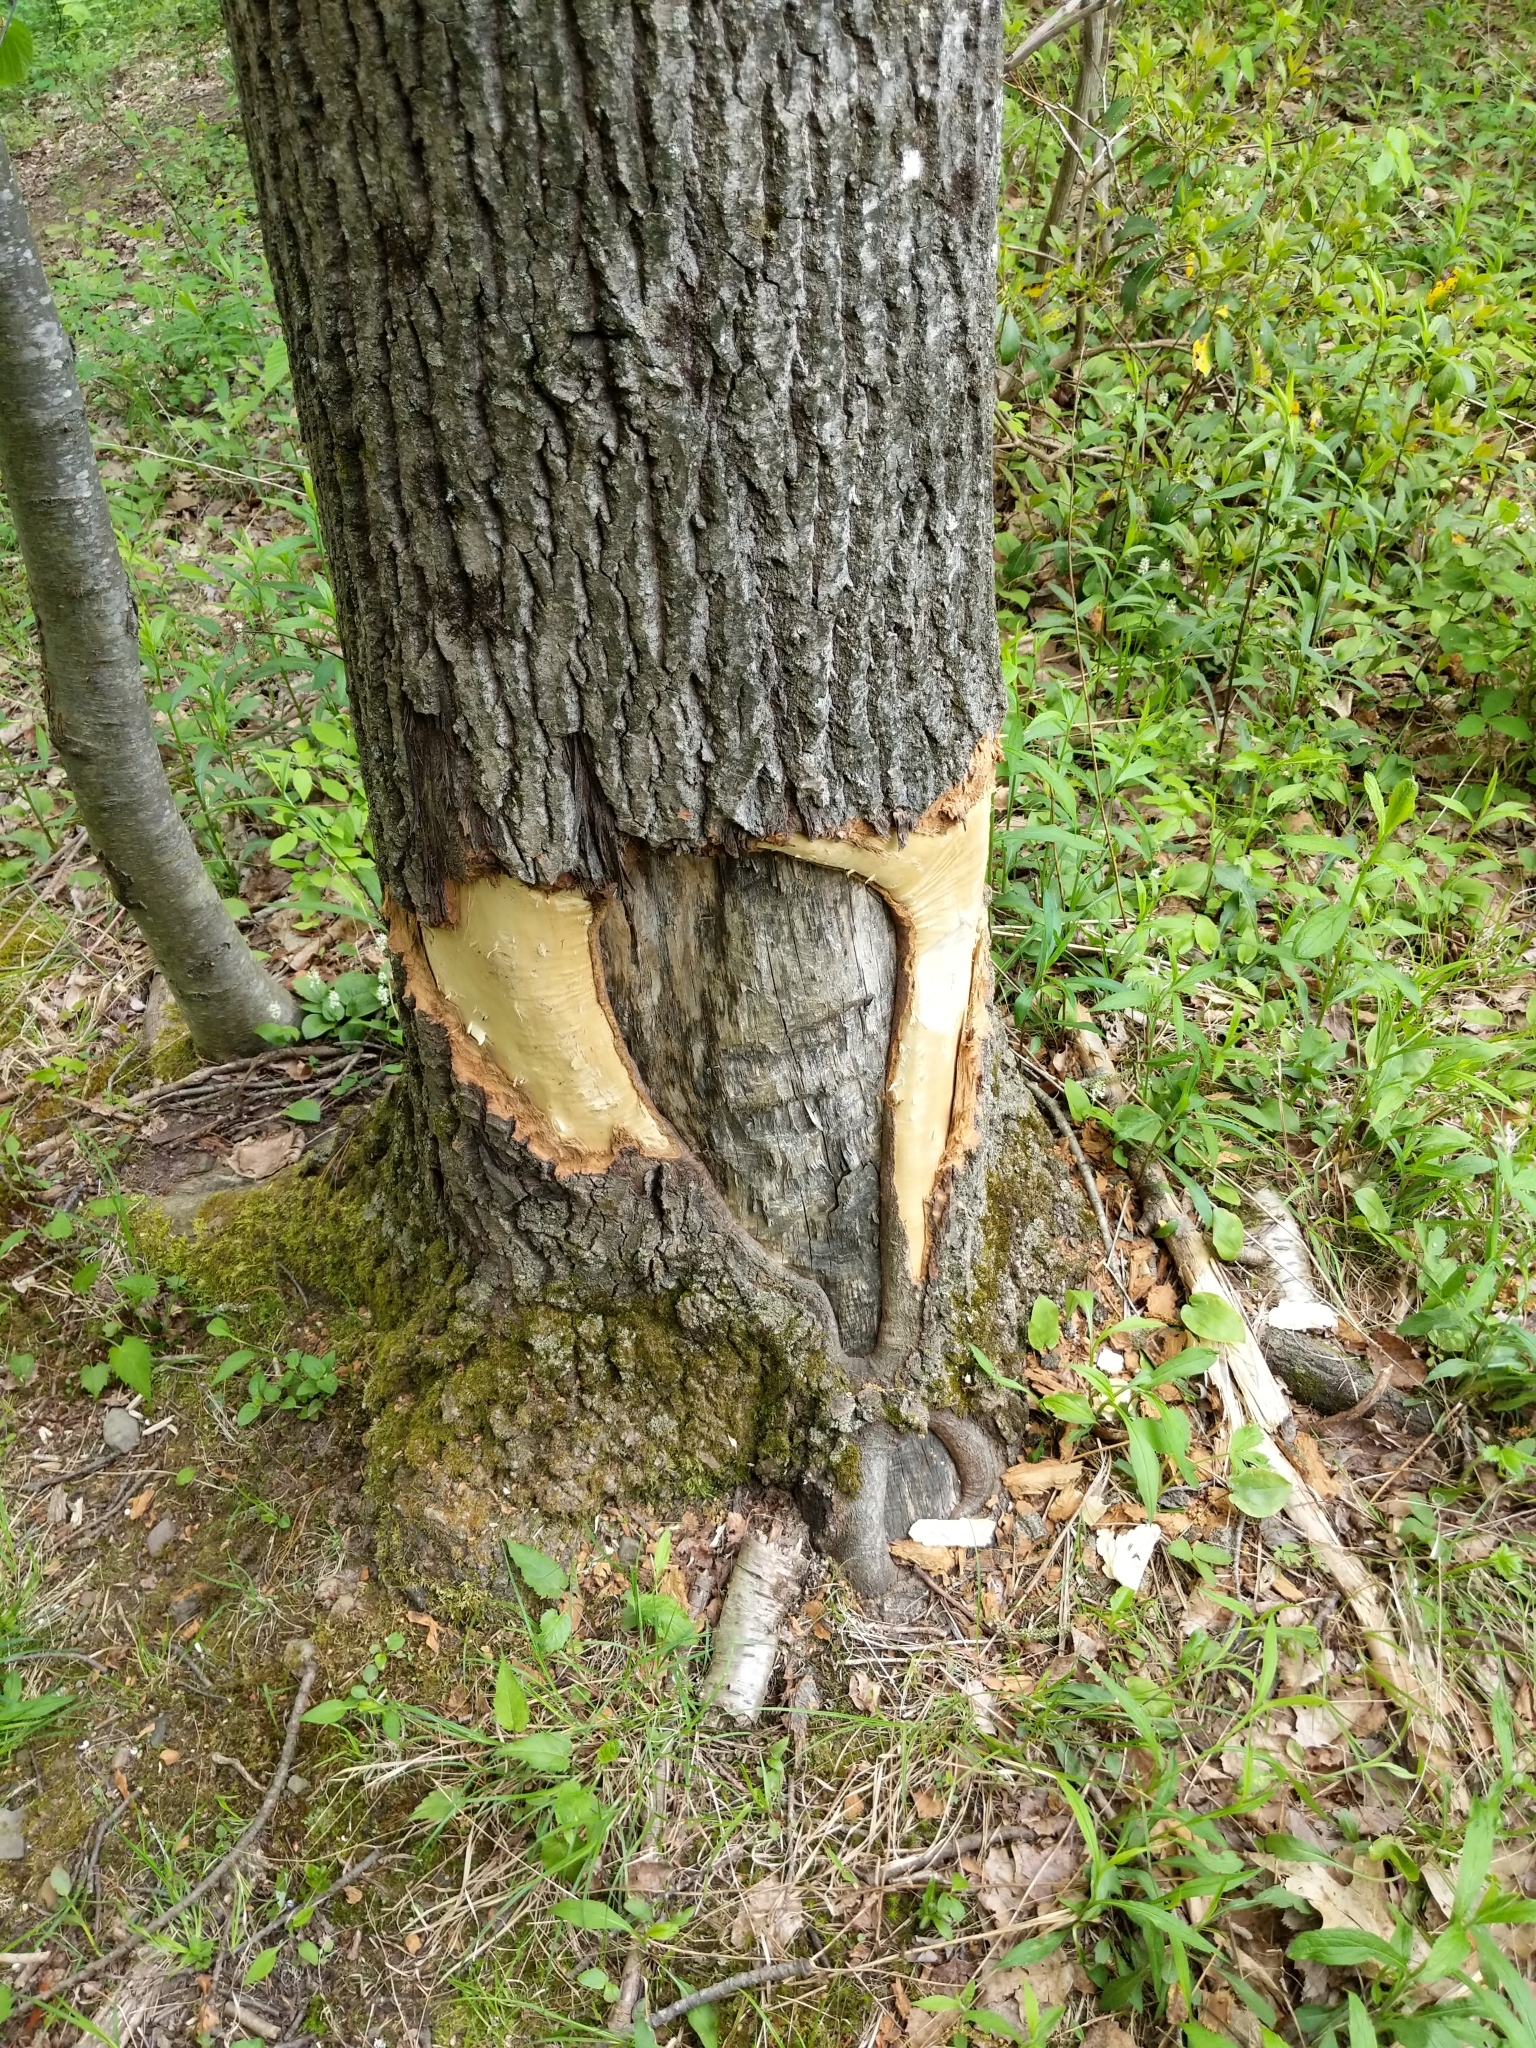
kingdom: Animalia
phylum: Chordata
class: Mammalia
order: Rodentia
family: Castoridae
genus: Castor
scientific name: Castor canadensis
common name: American beaver
